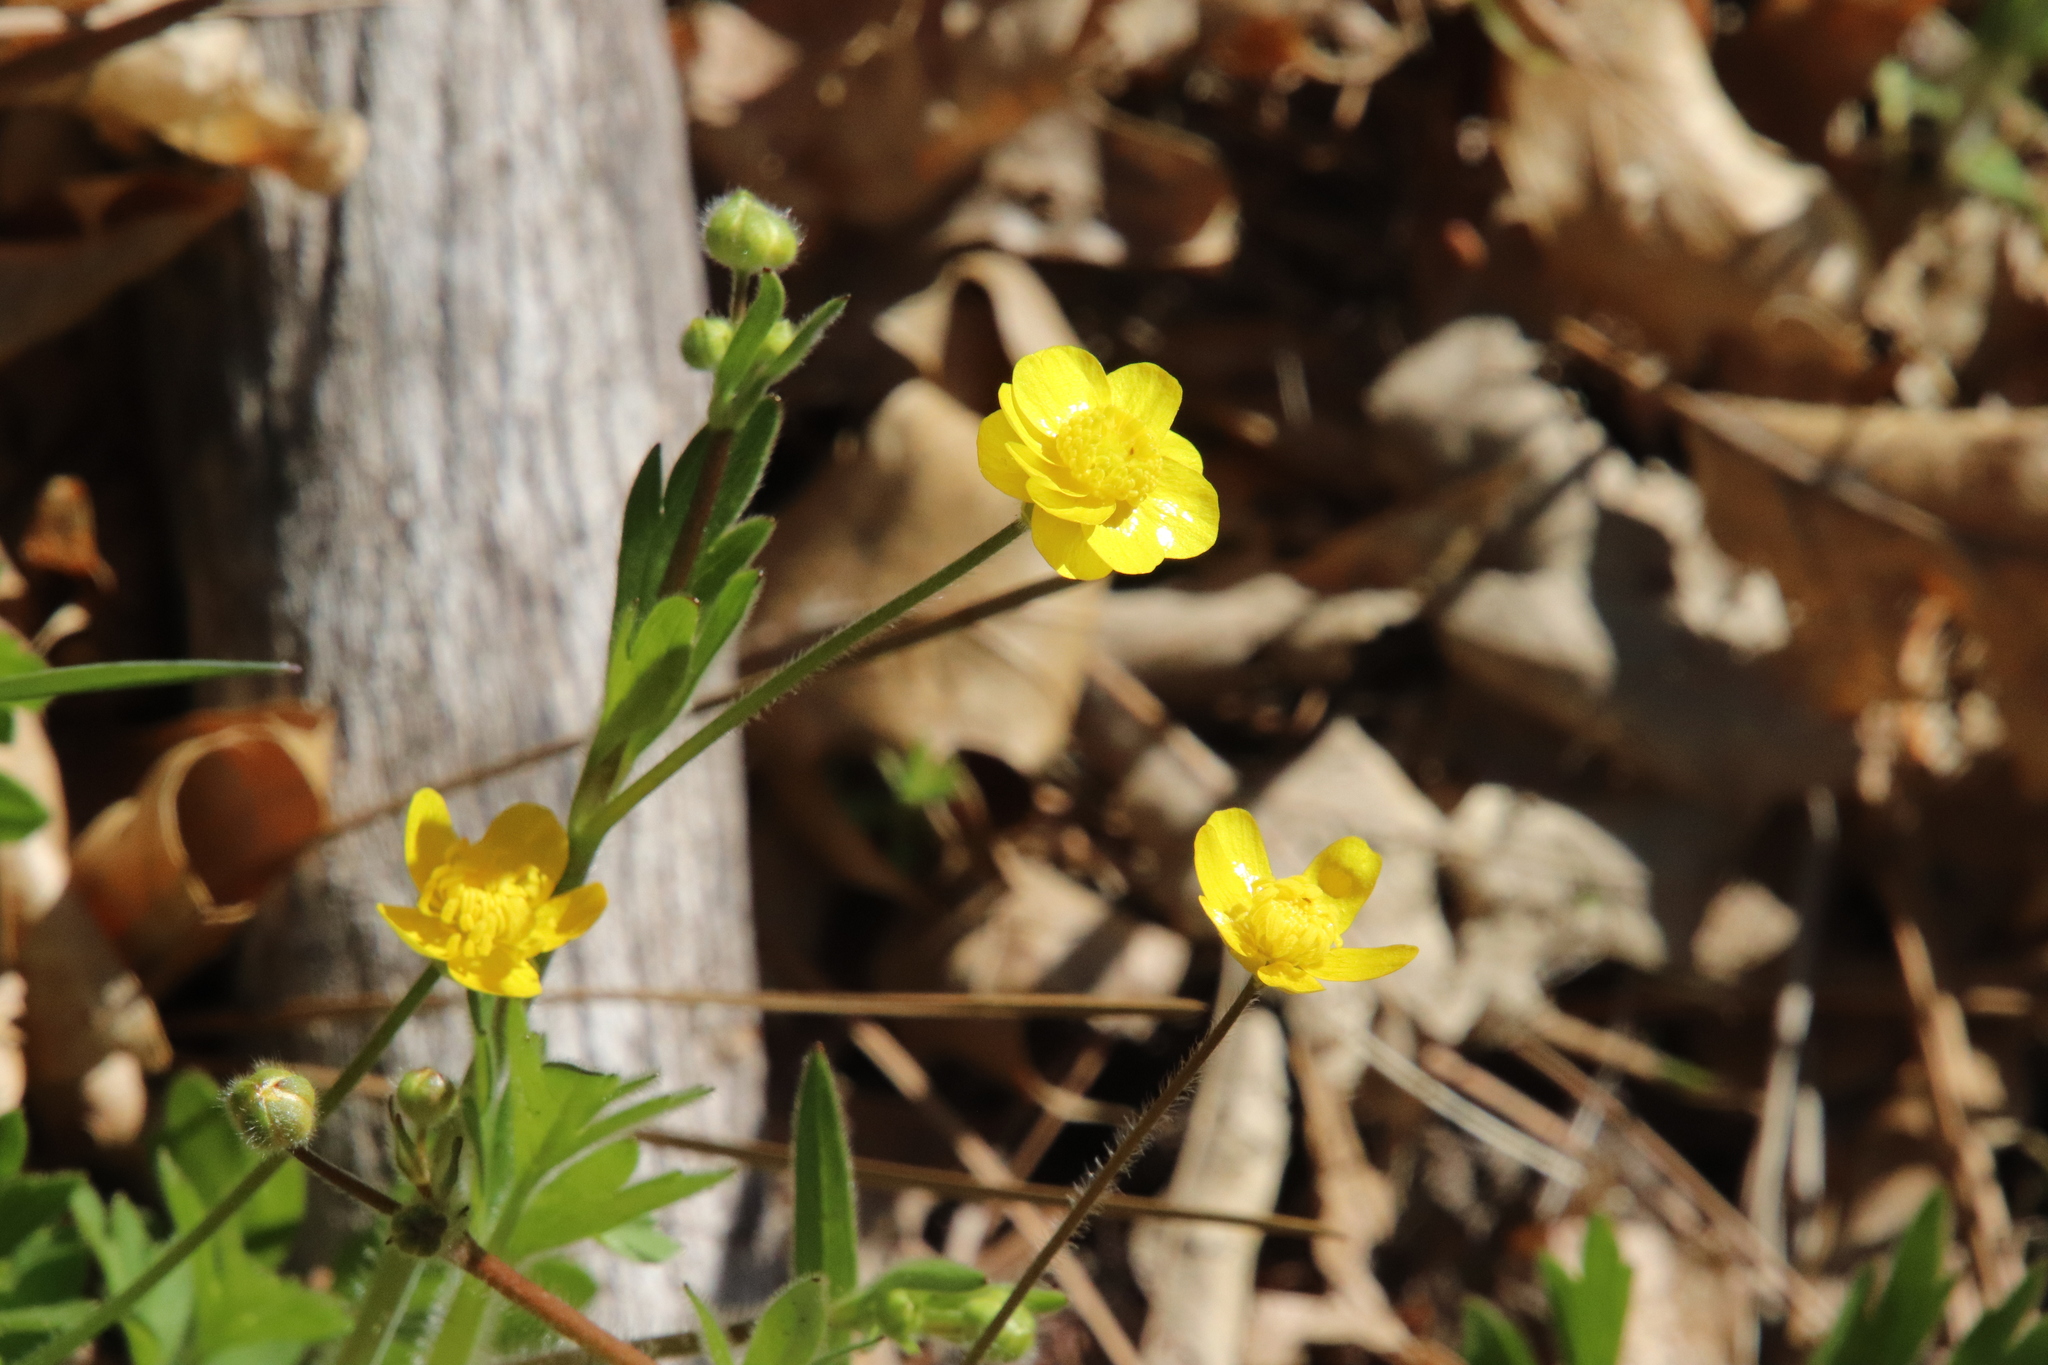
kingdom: Plantae
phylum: Tracheophyta
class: Magnoliopsida
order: Ranunculales
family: Ranunculaceae
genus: Ranunculus
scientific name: Ranunculus californicus
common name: California buttercup
